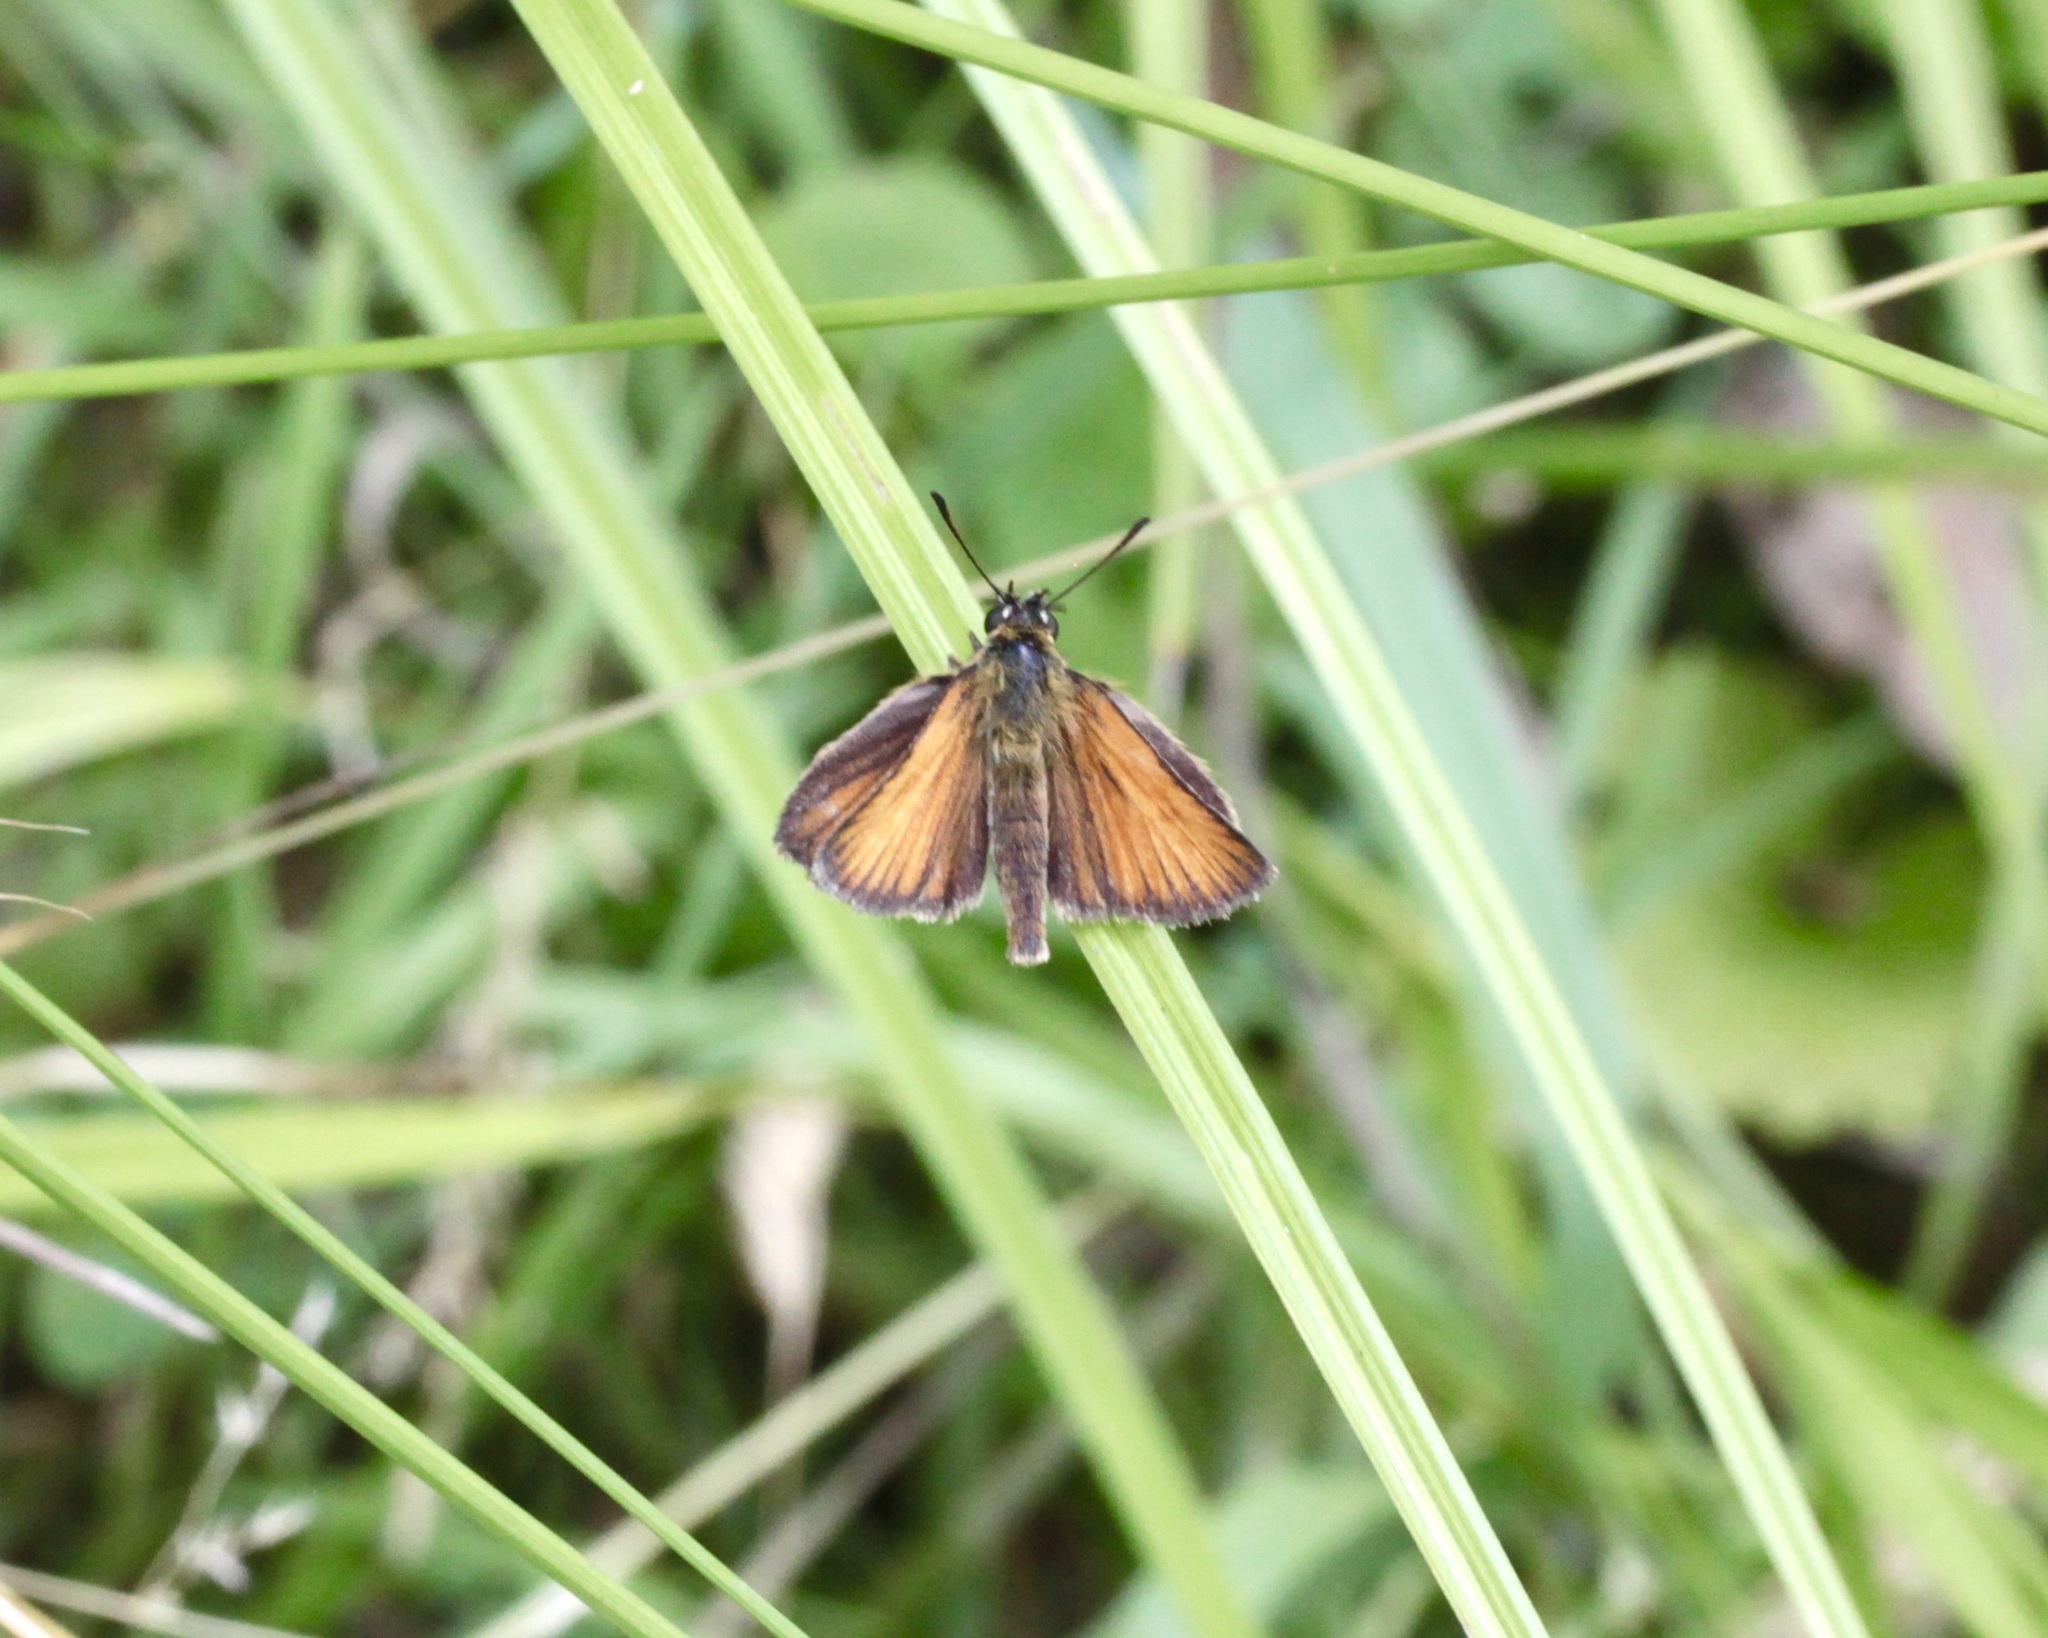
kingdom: Animalia
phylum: Arthropoda
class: Insecta
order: Lepidoptera
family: Hesperiidae
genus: Thymelicus
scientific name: Thymelicus lineola
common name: Essex skipper
